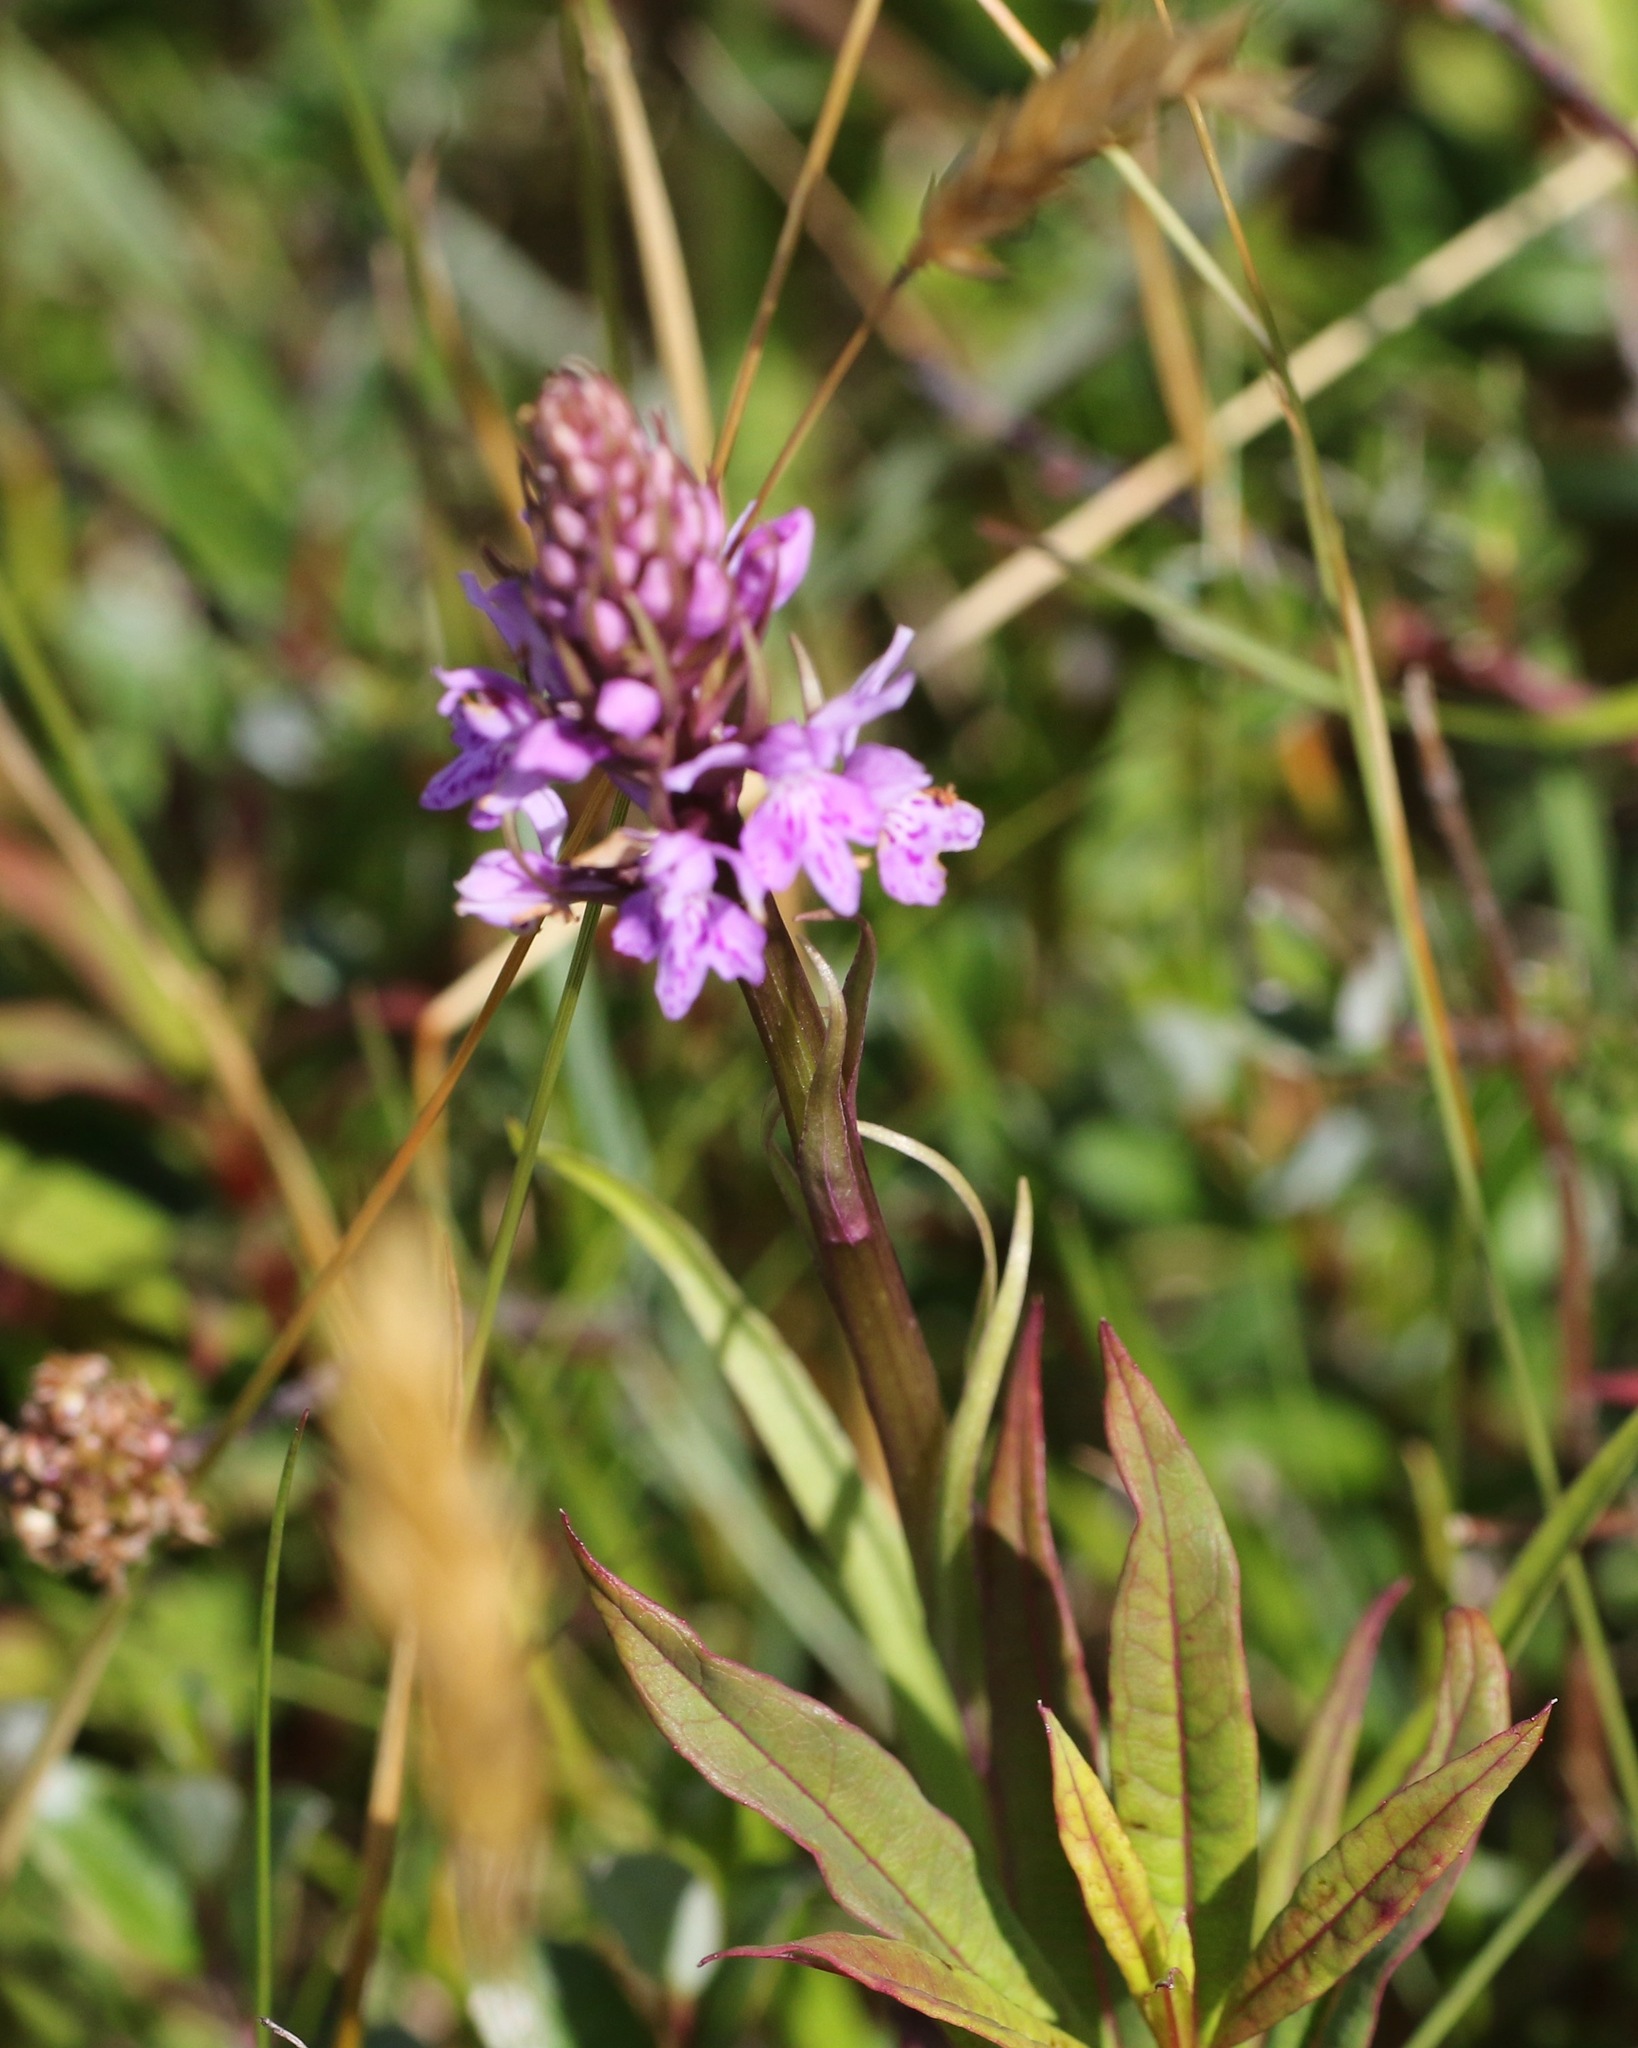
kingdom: Plantae
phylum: Tracheophyta
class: Liliopsida
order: Asparagales
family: Orchidaceae
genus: Dactylorhiza
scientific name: Dactylorhiza maculata
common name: Heath spotted-orchid
